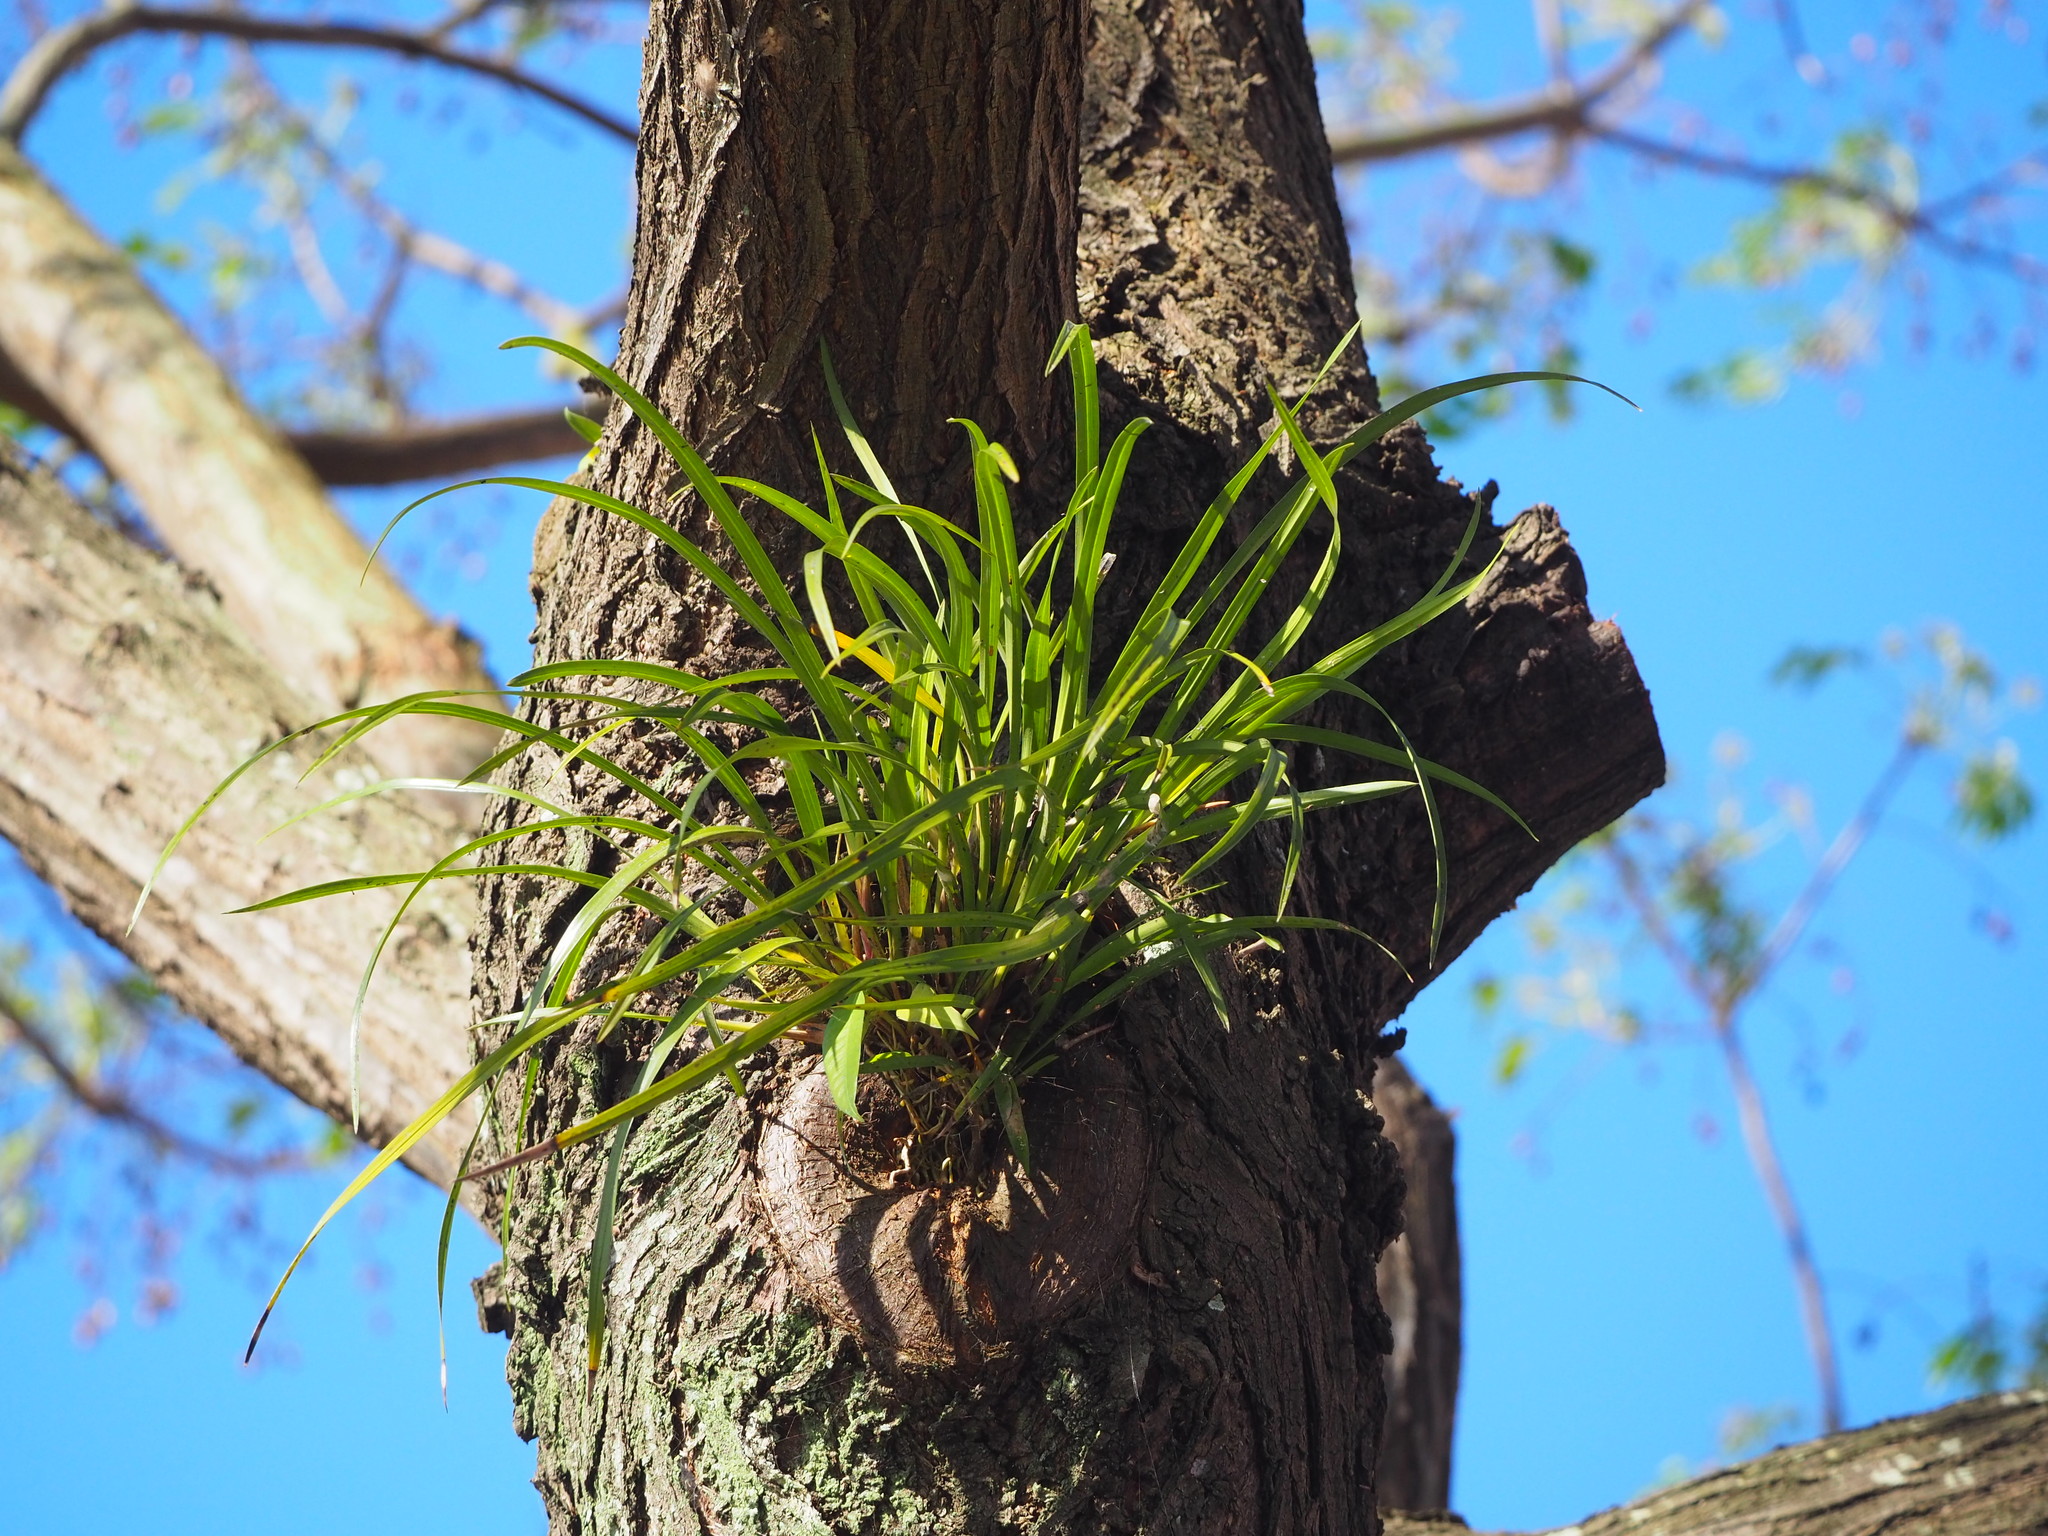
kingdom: Plantae
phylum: Tracheophyta
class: Liliopsida
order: Asparagales
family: Orchidaceae
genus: Cymbidium
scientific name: Cymbidium dayanum
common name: Orchid
